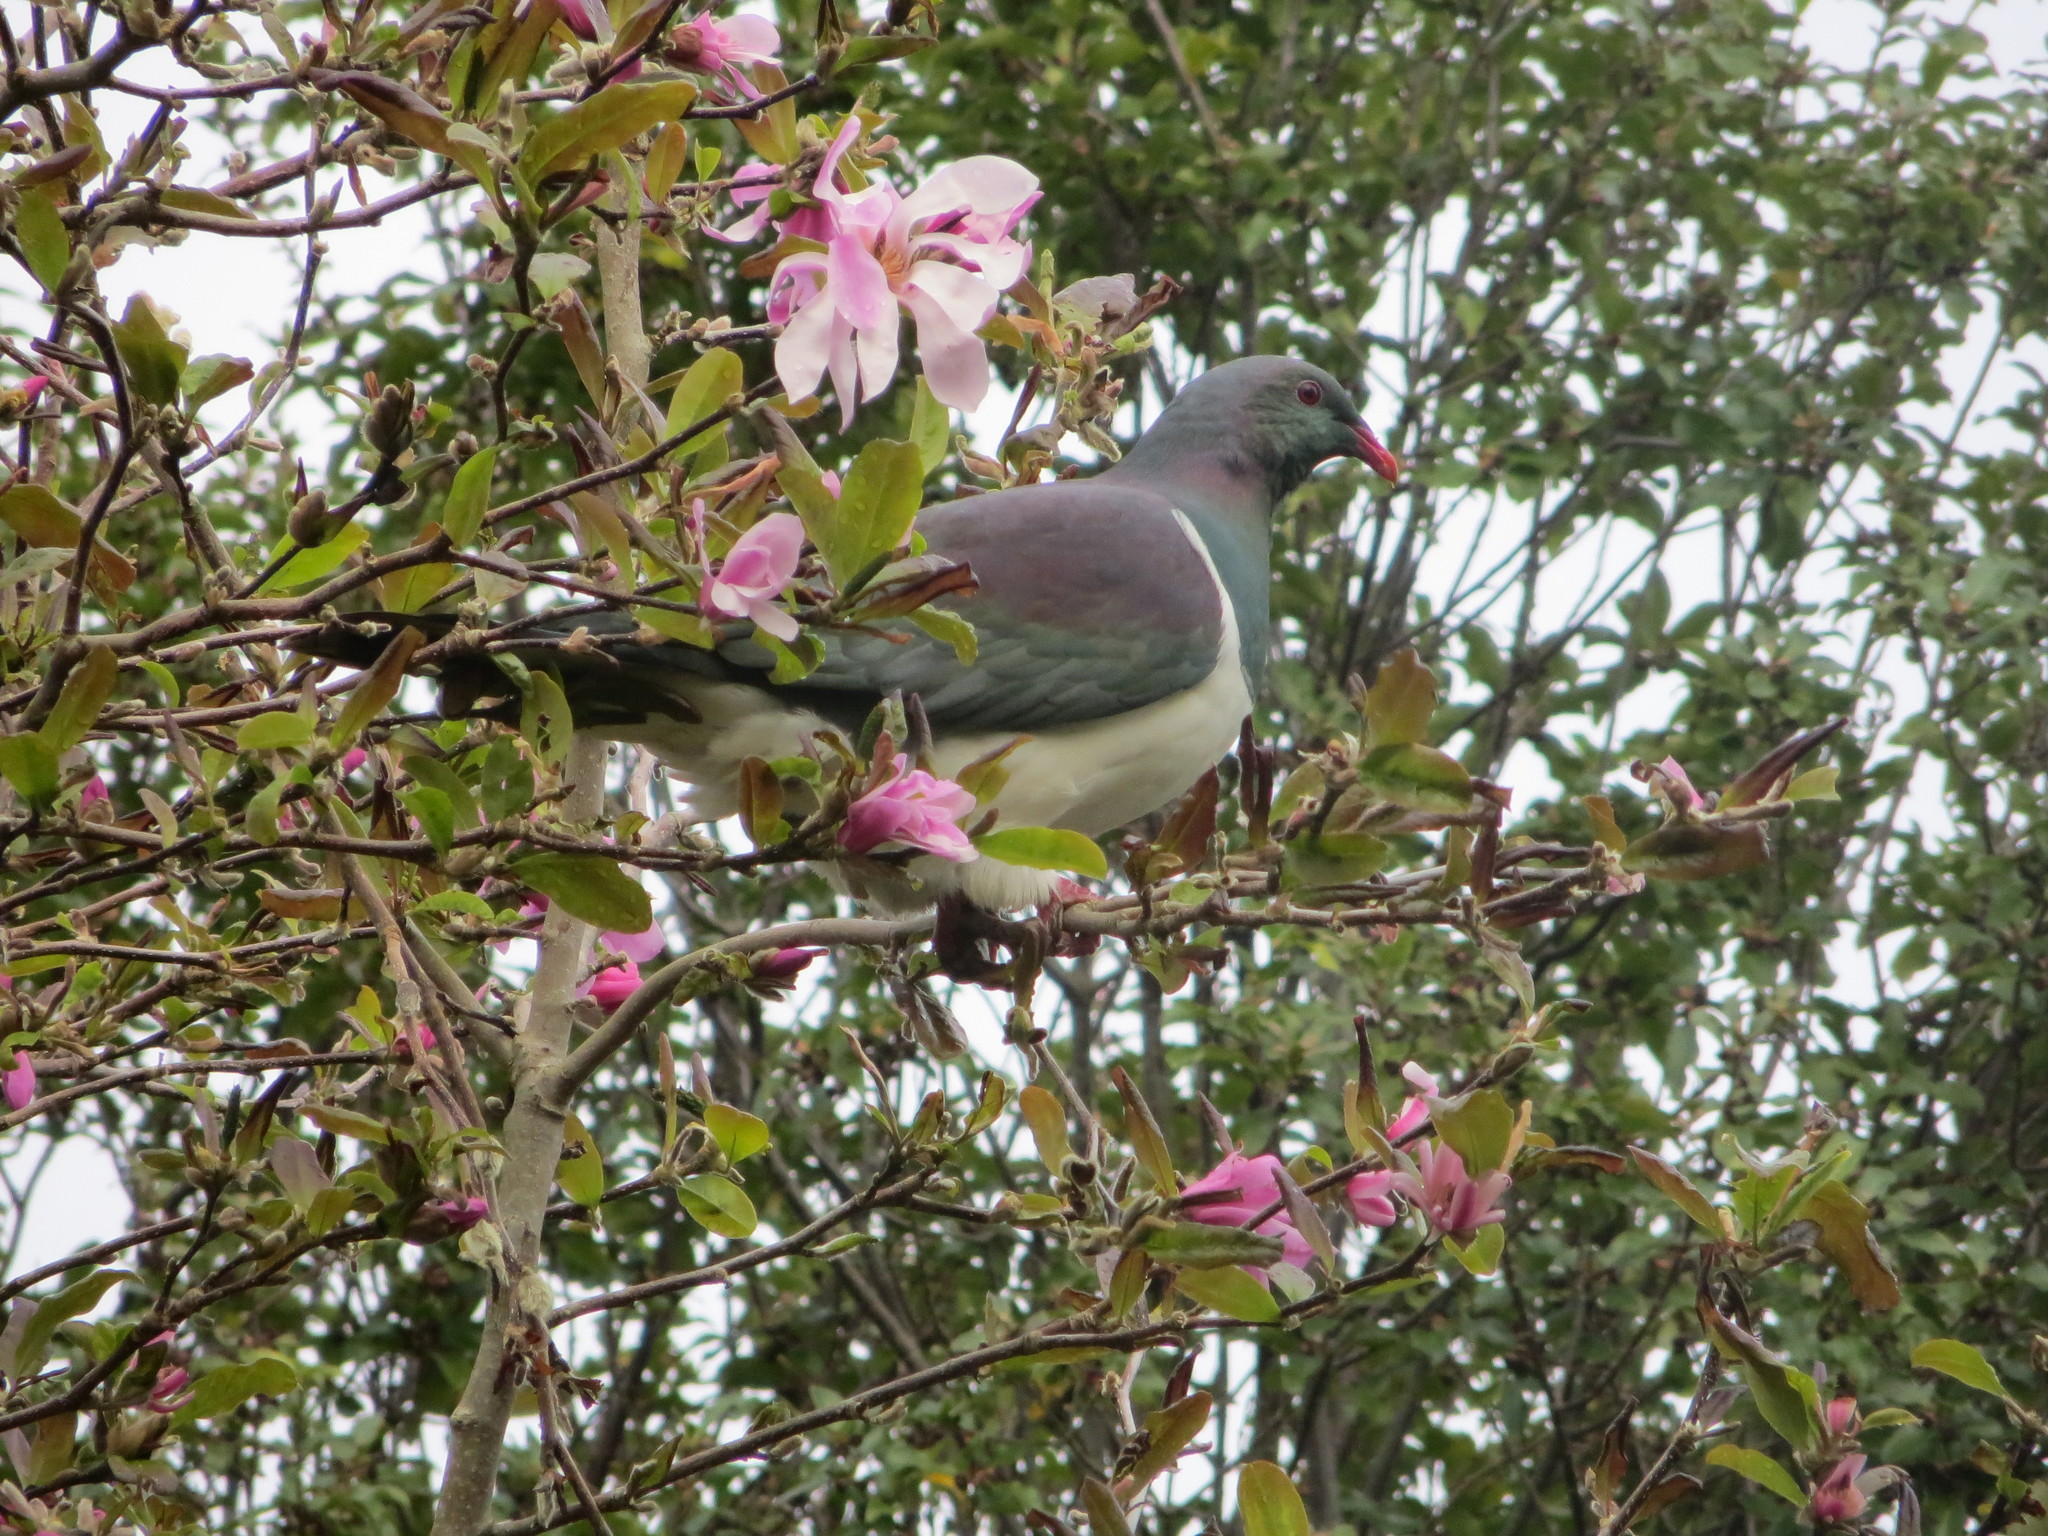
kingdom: Animalia
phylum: Chordata
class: Aves
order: Columbiformes
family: Columbidae
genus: Hemiphaga
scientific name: Hemiphaga novaeseelandiae
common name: New zealand pigeon
